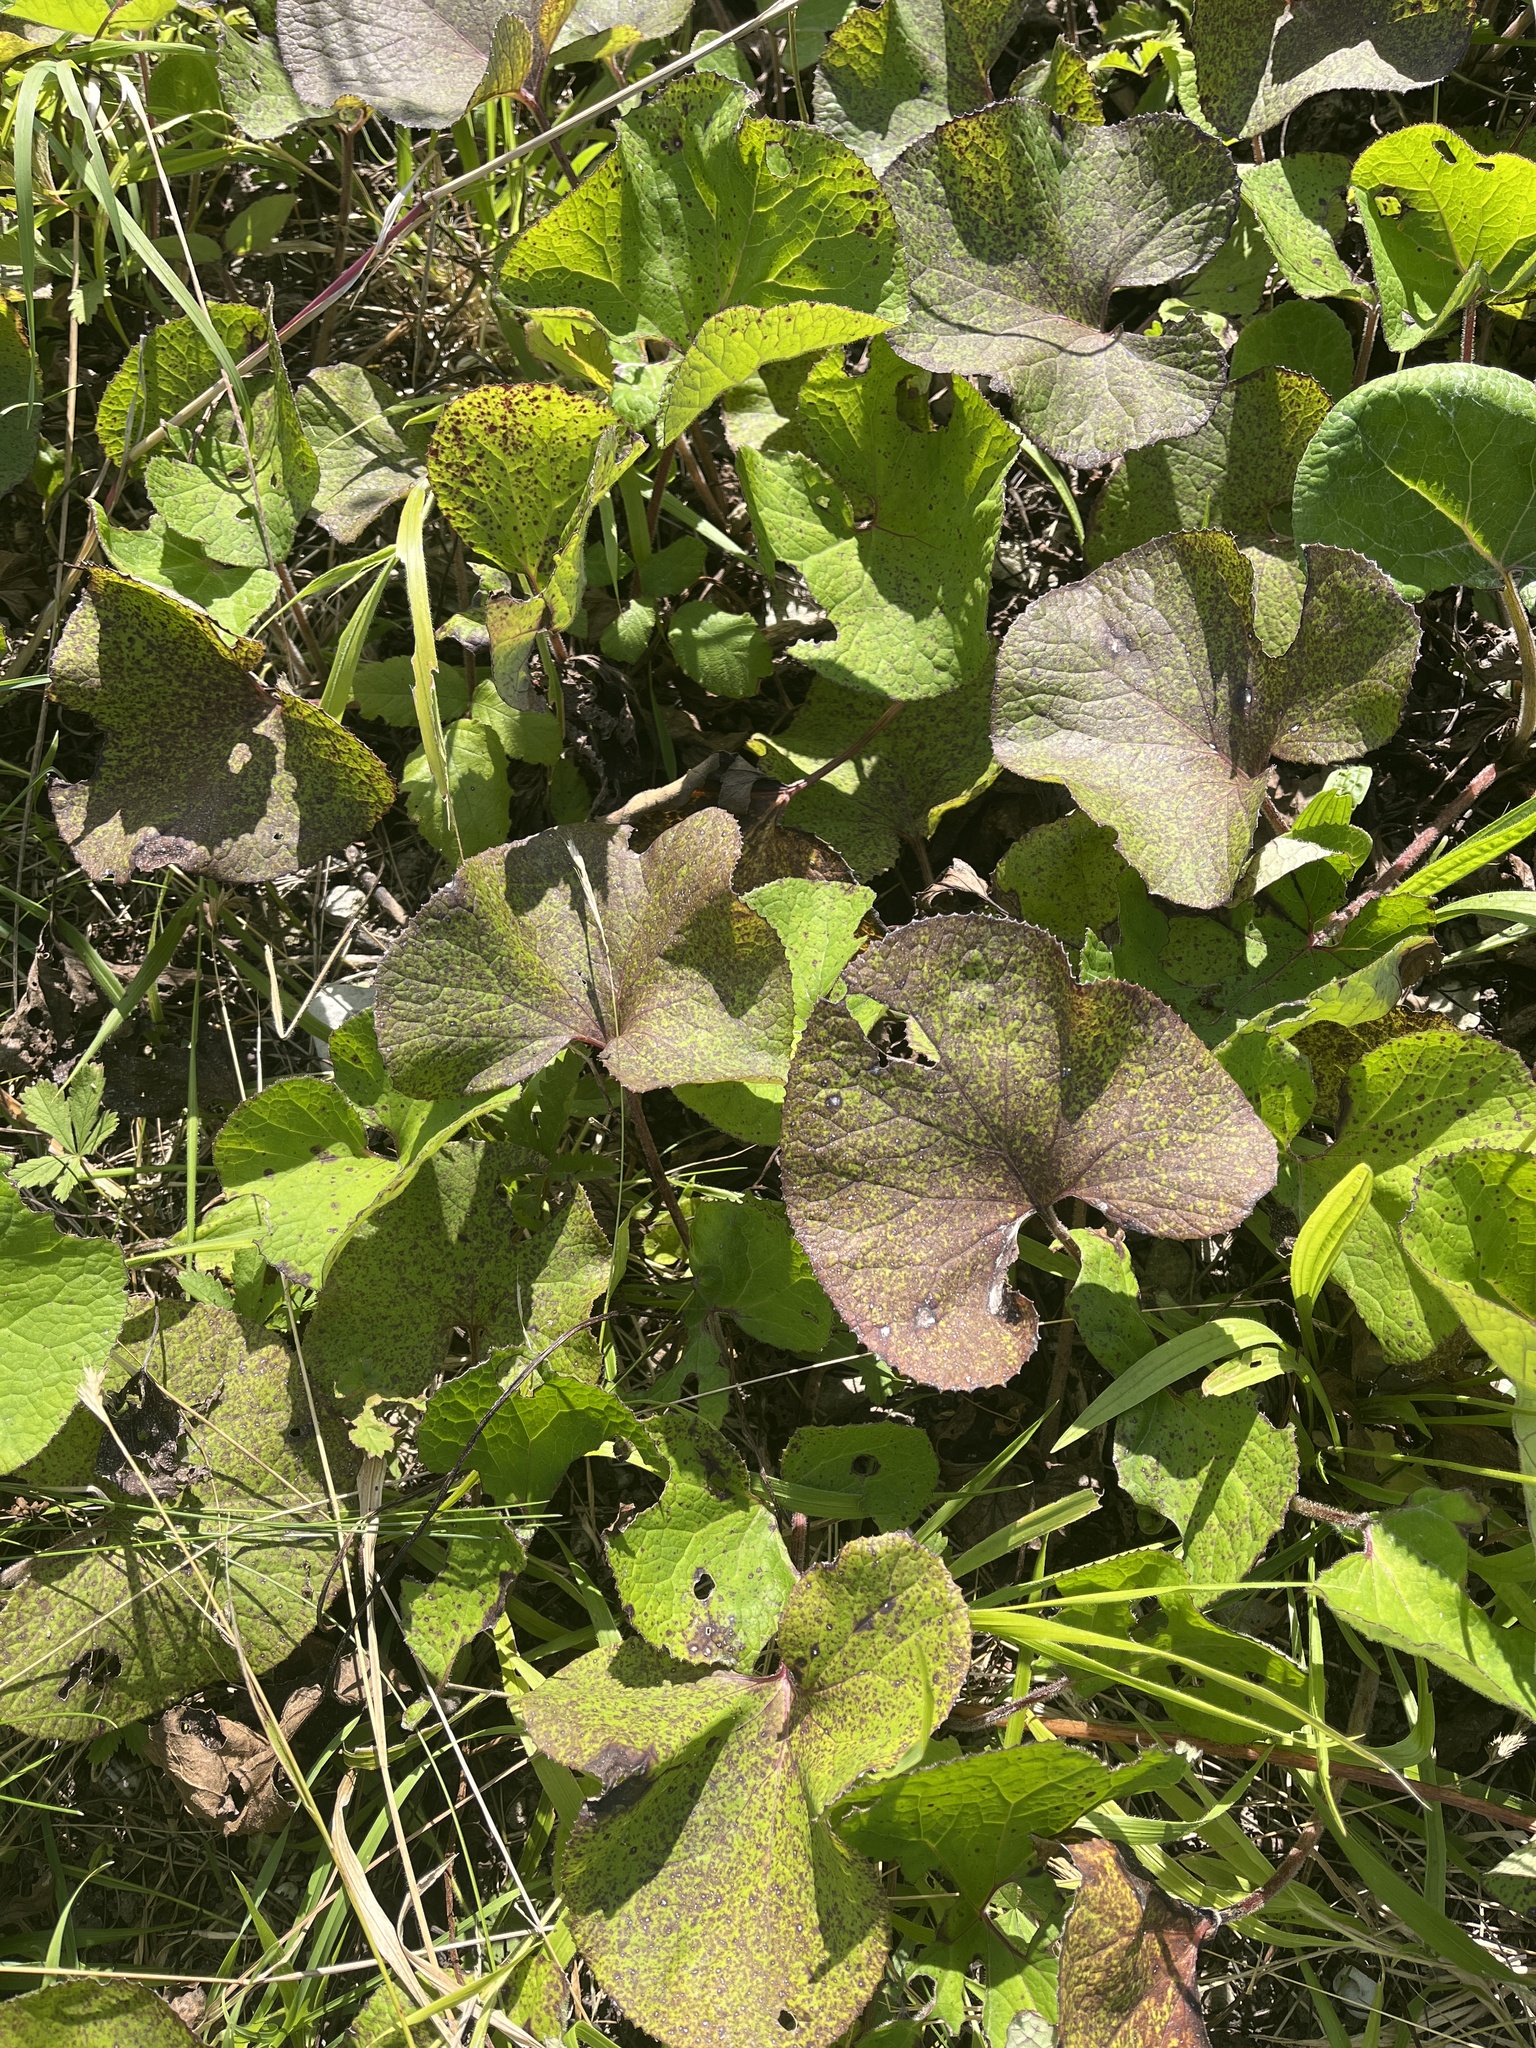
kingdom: Plantae
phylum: Tracheophyta
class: Magnoliopsida
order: Asterales
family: Asteraceae
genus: Petasites
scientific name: Petasites pyrenaicus
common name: Winter heliotrope
